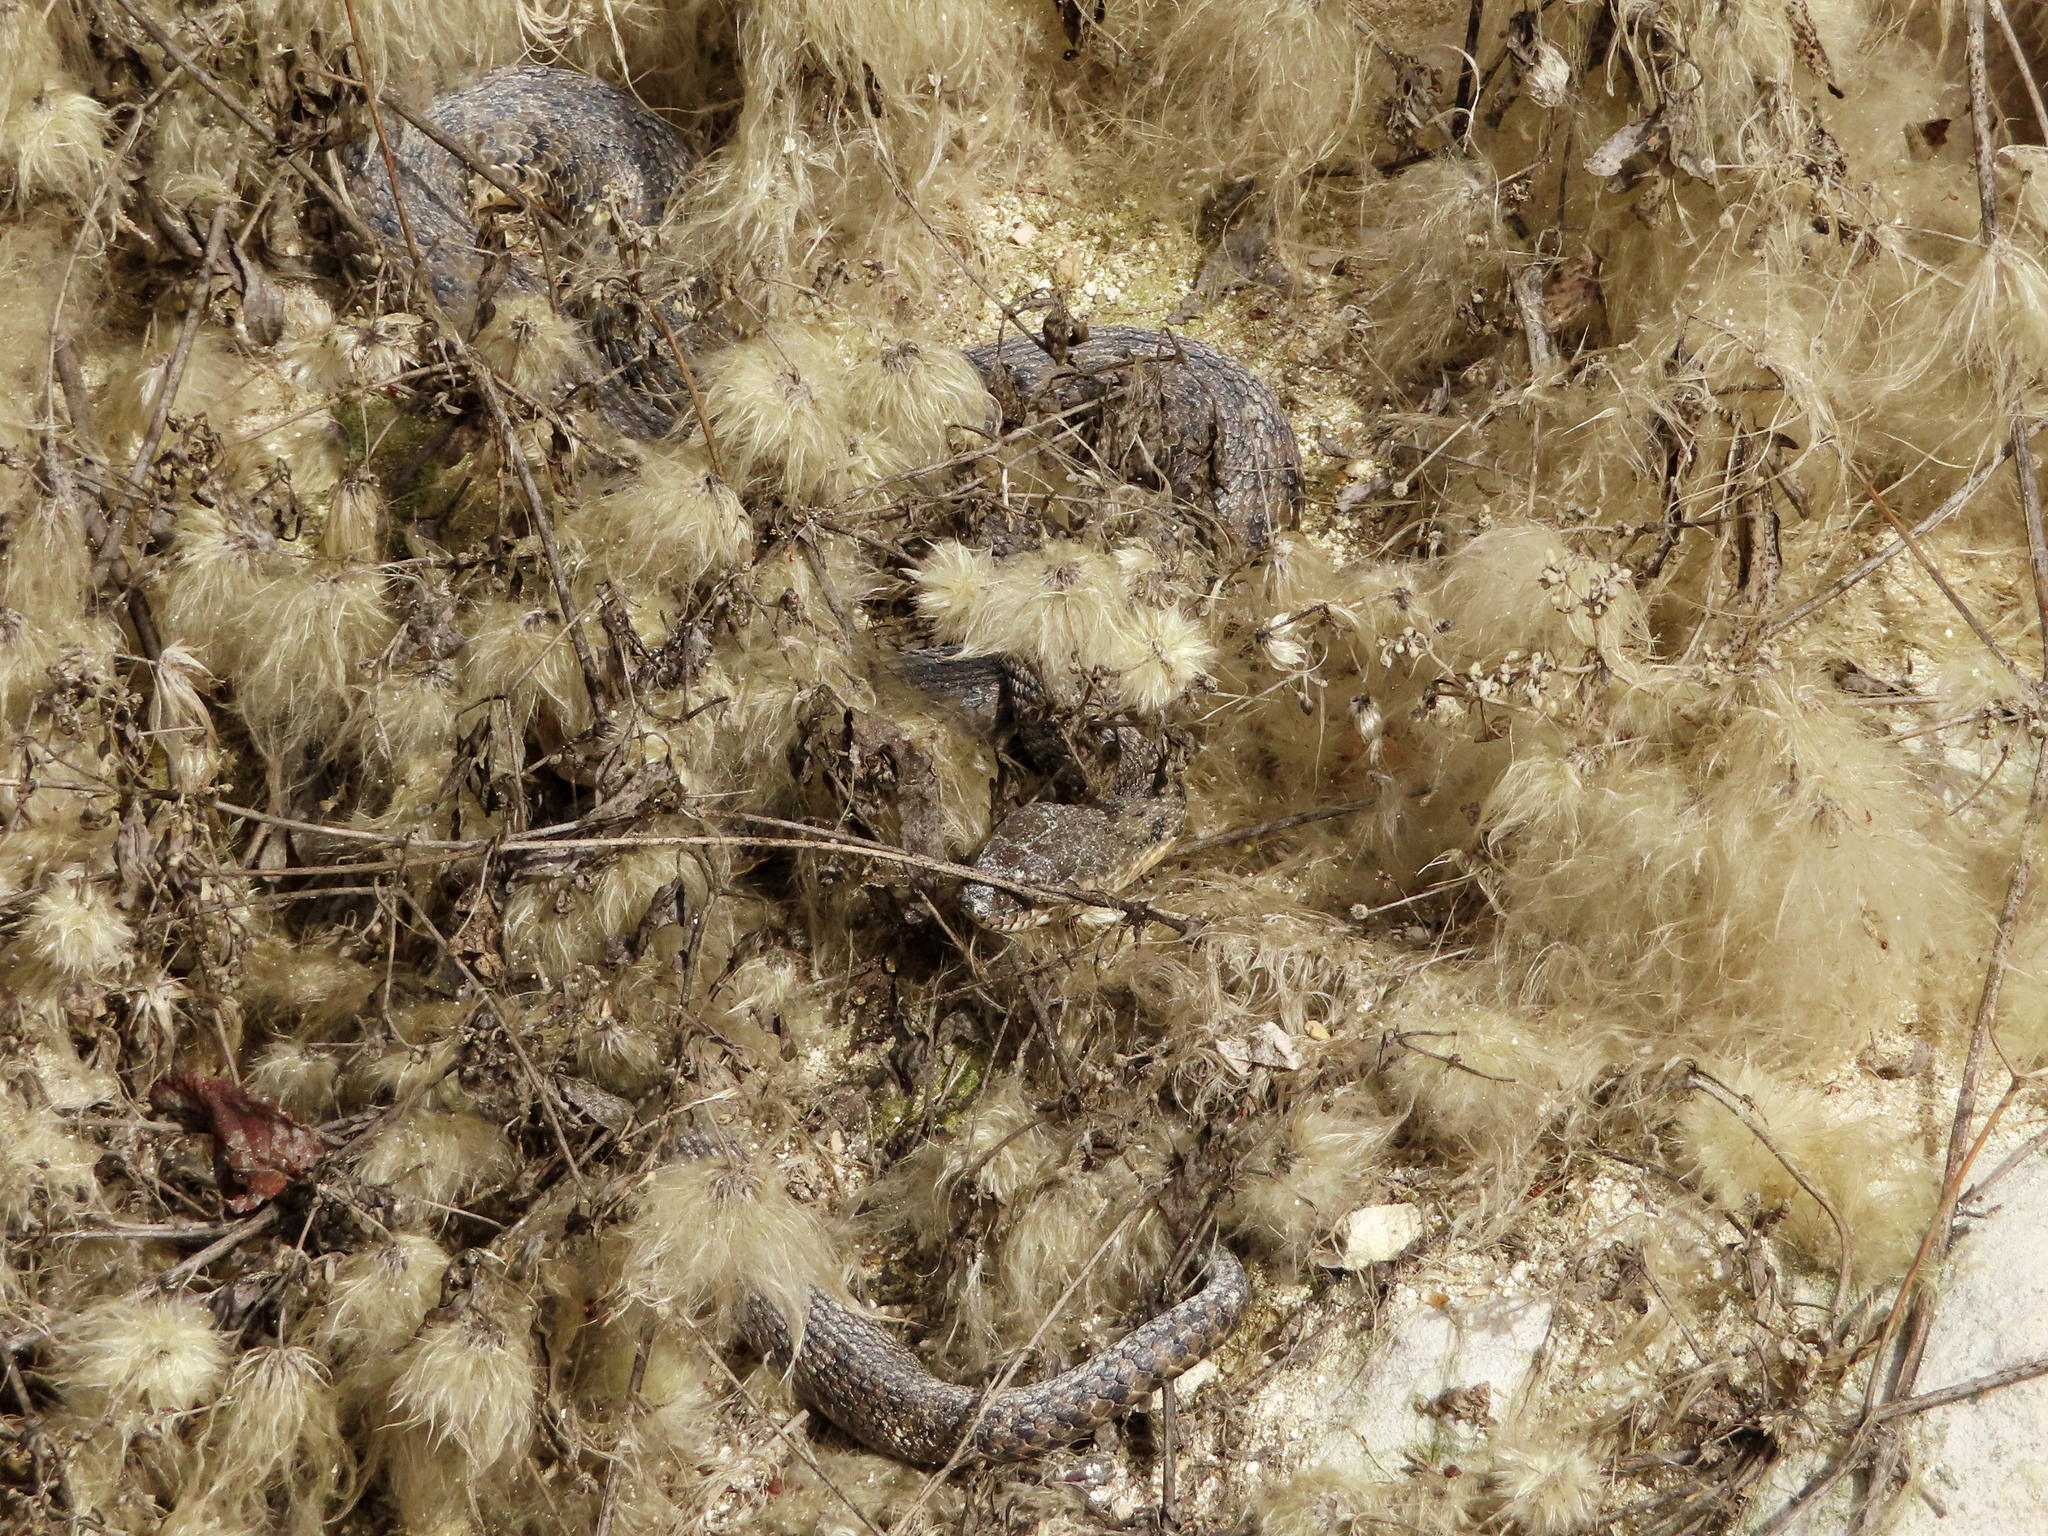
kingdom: Animalia
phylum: Chordata
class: Squamata
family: Colubridae
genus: Natrix
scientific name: Natrix tessellata
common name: Dice snake
